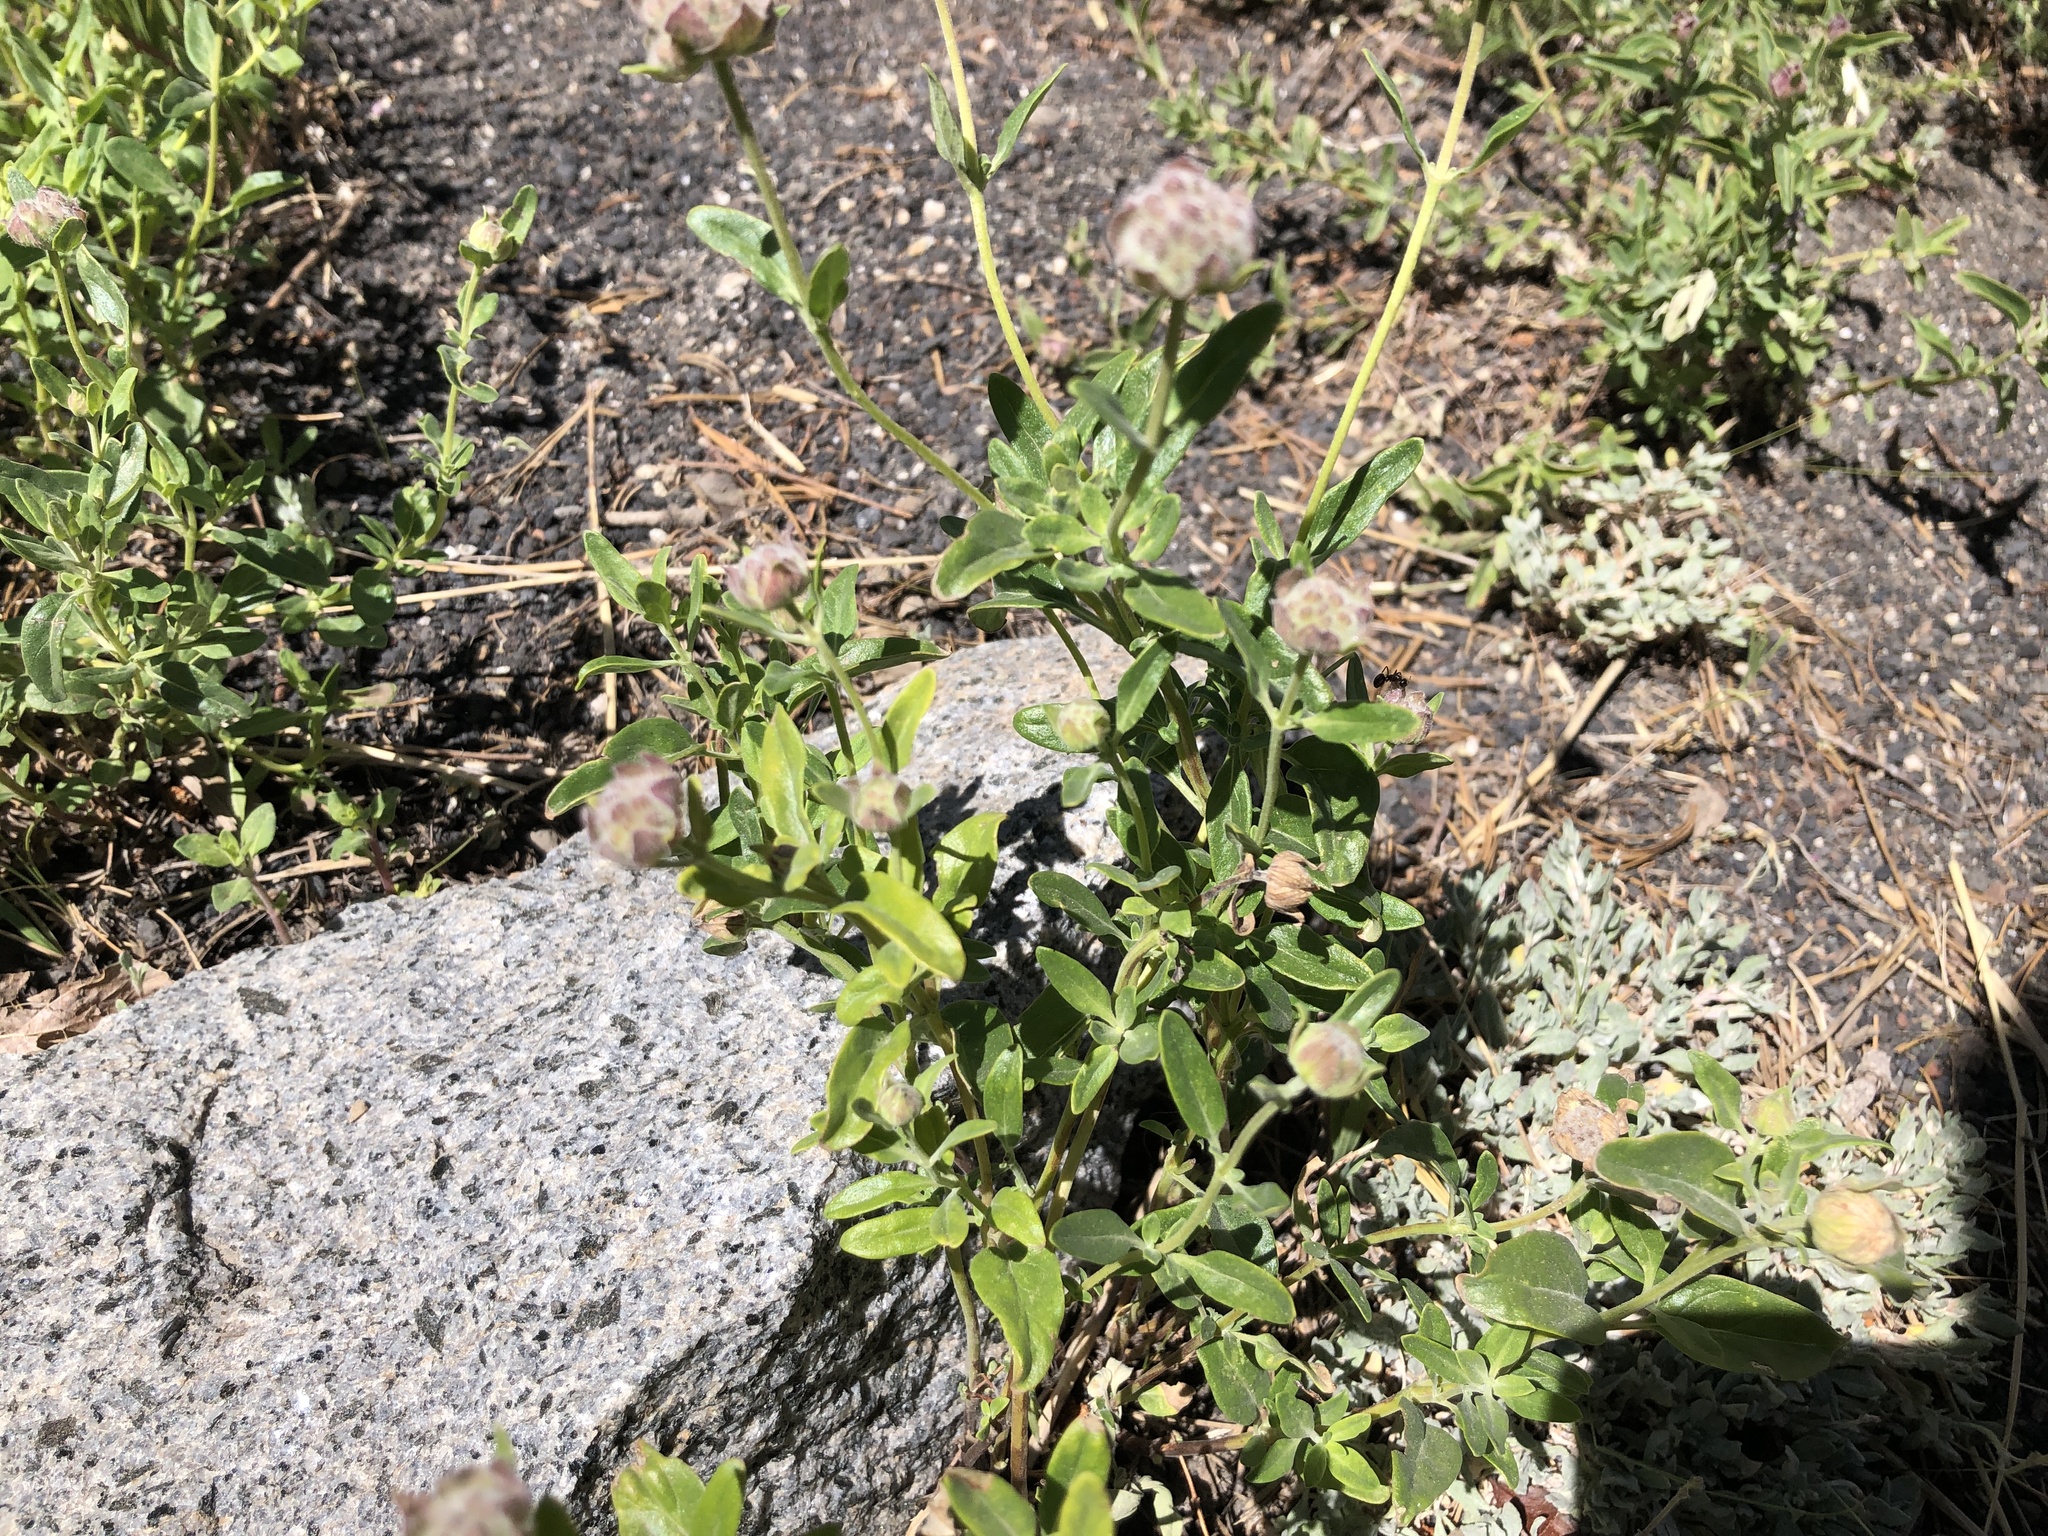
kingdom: Plantae
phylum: Tracheophyta
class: Magnoliopsida
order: Lamiales
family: Lamiaceae
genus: Monardella
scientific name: Monardella odoratissima
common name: Pacific monardella
